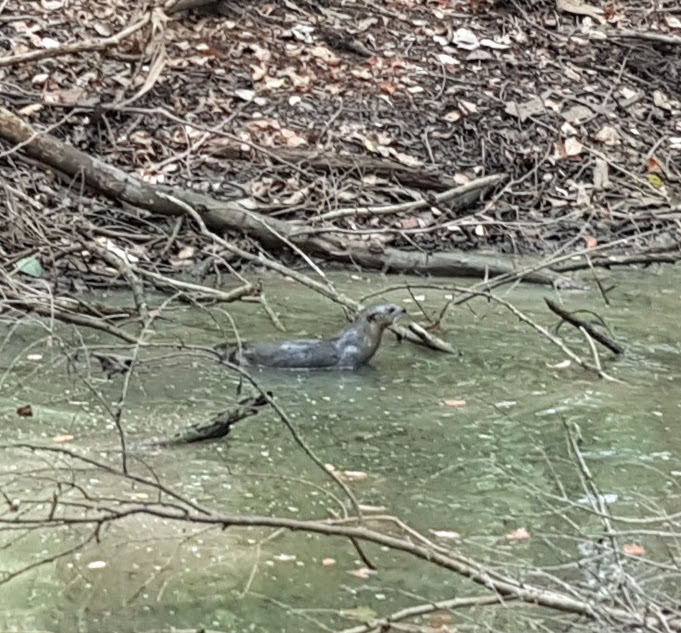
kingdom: Animalia
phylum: Chordata
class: Mammalia
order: Carnivora
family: Mustelidae
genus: Lontra
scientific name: Lontra canadensis
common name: North american river otter
